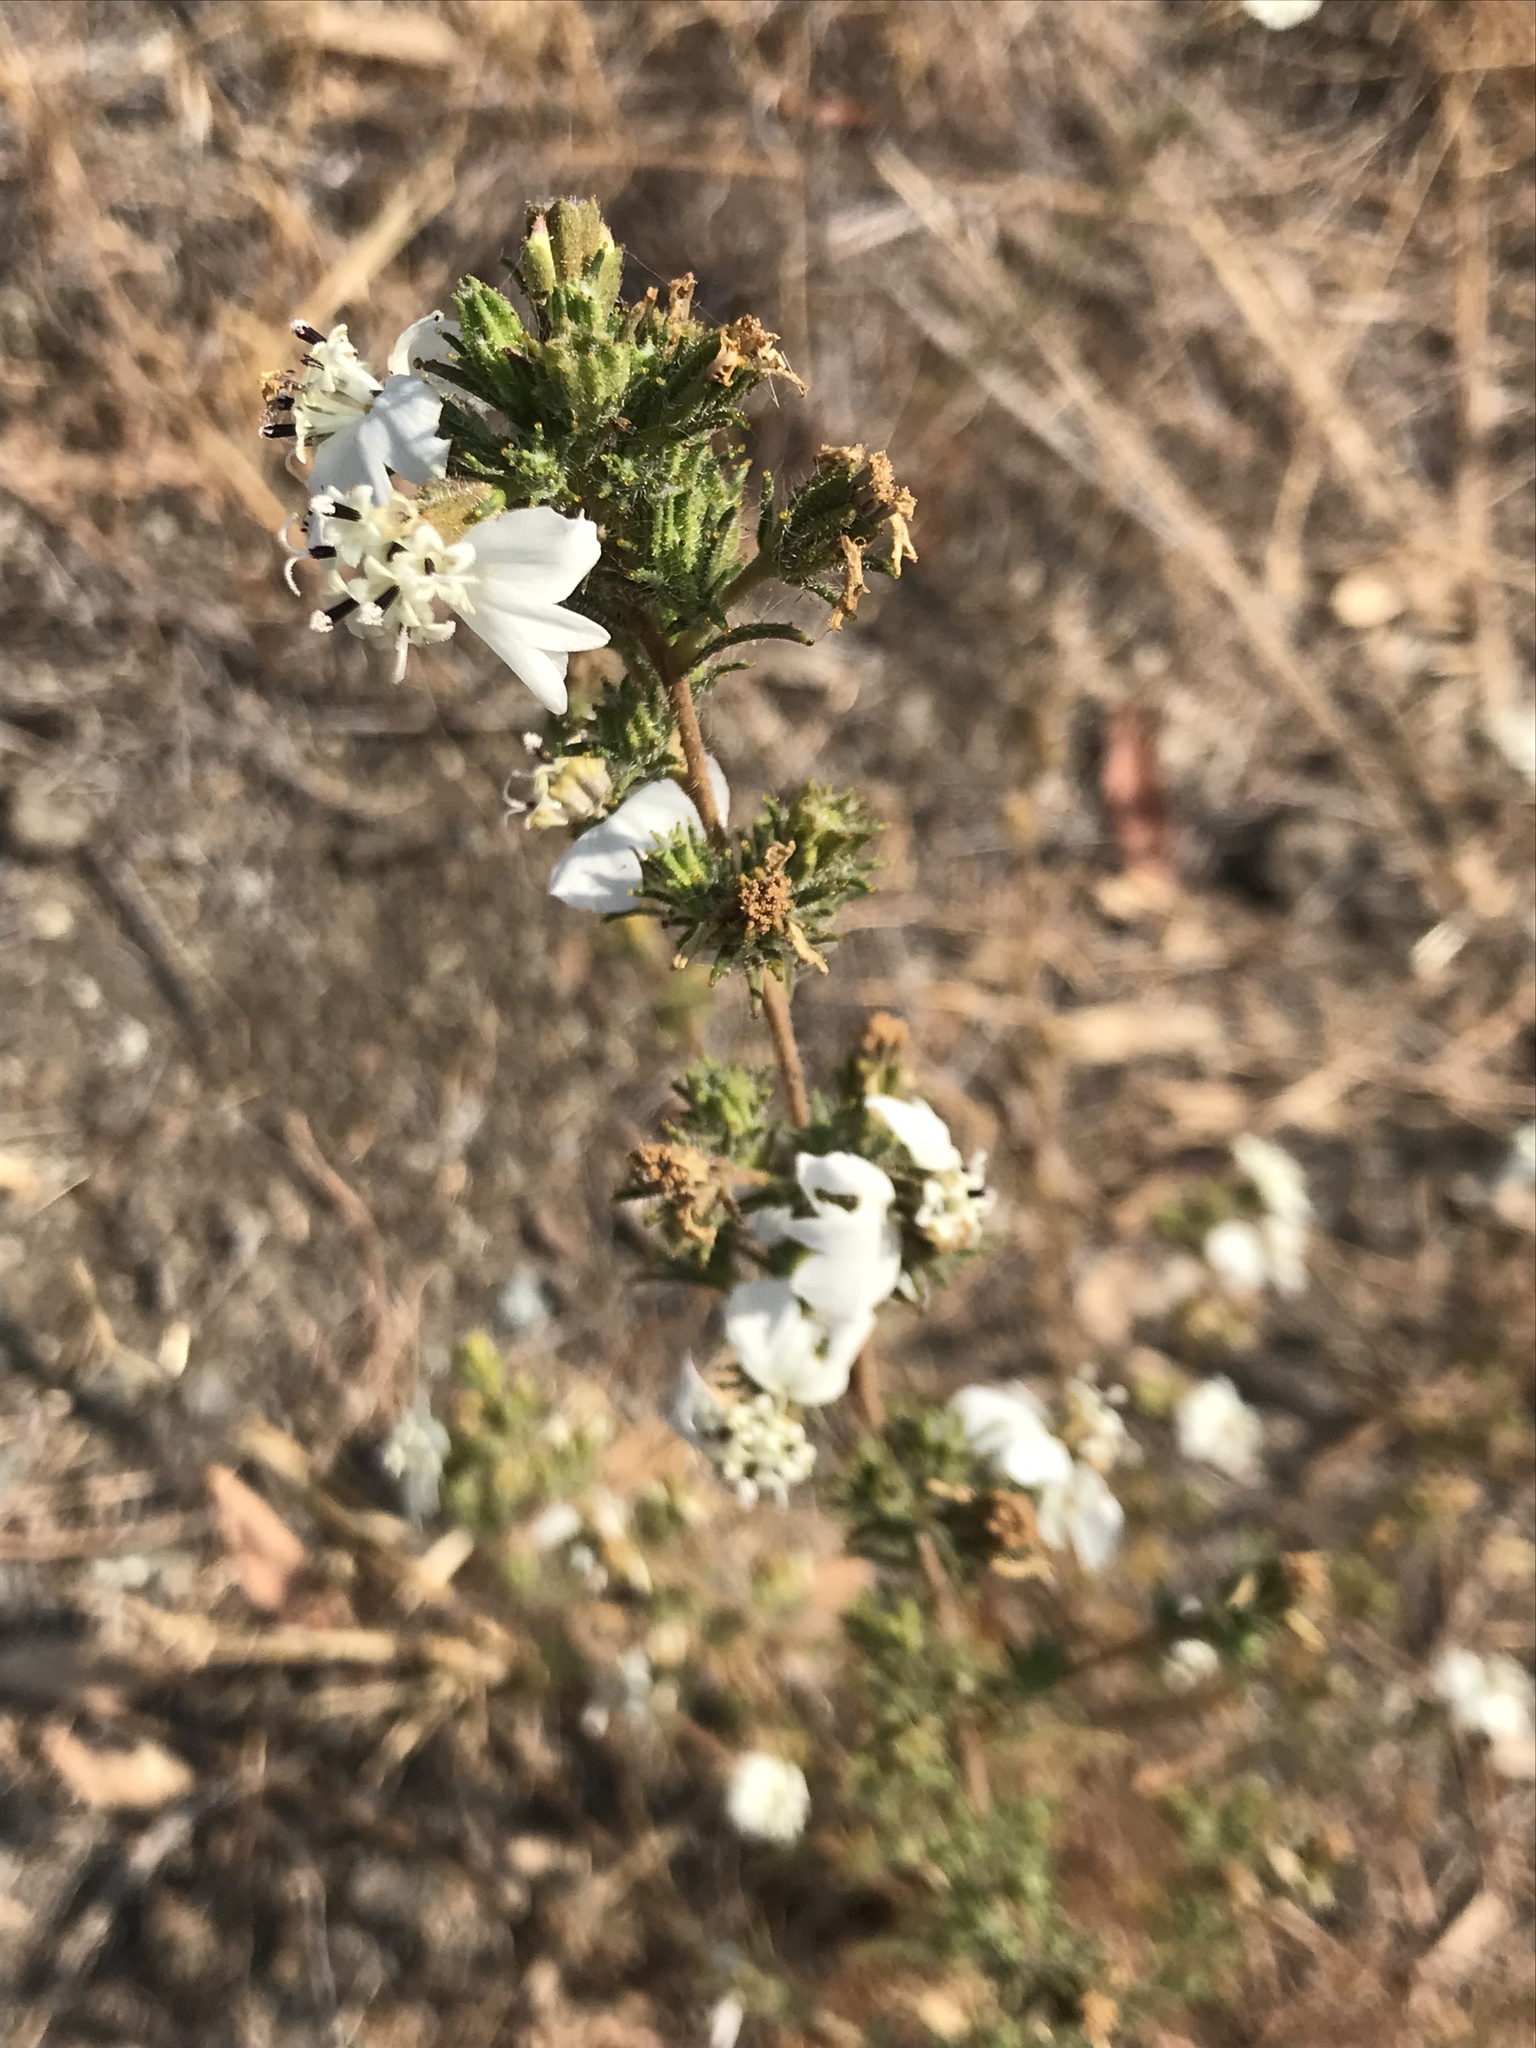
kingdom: Plantae
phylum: Tracheophyta
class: Magnoliopsida
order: Asterales
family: Asteraceae
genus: Calycadenia
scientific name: Calycadenia multiglandulosa
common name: Sticky calycadenia
